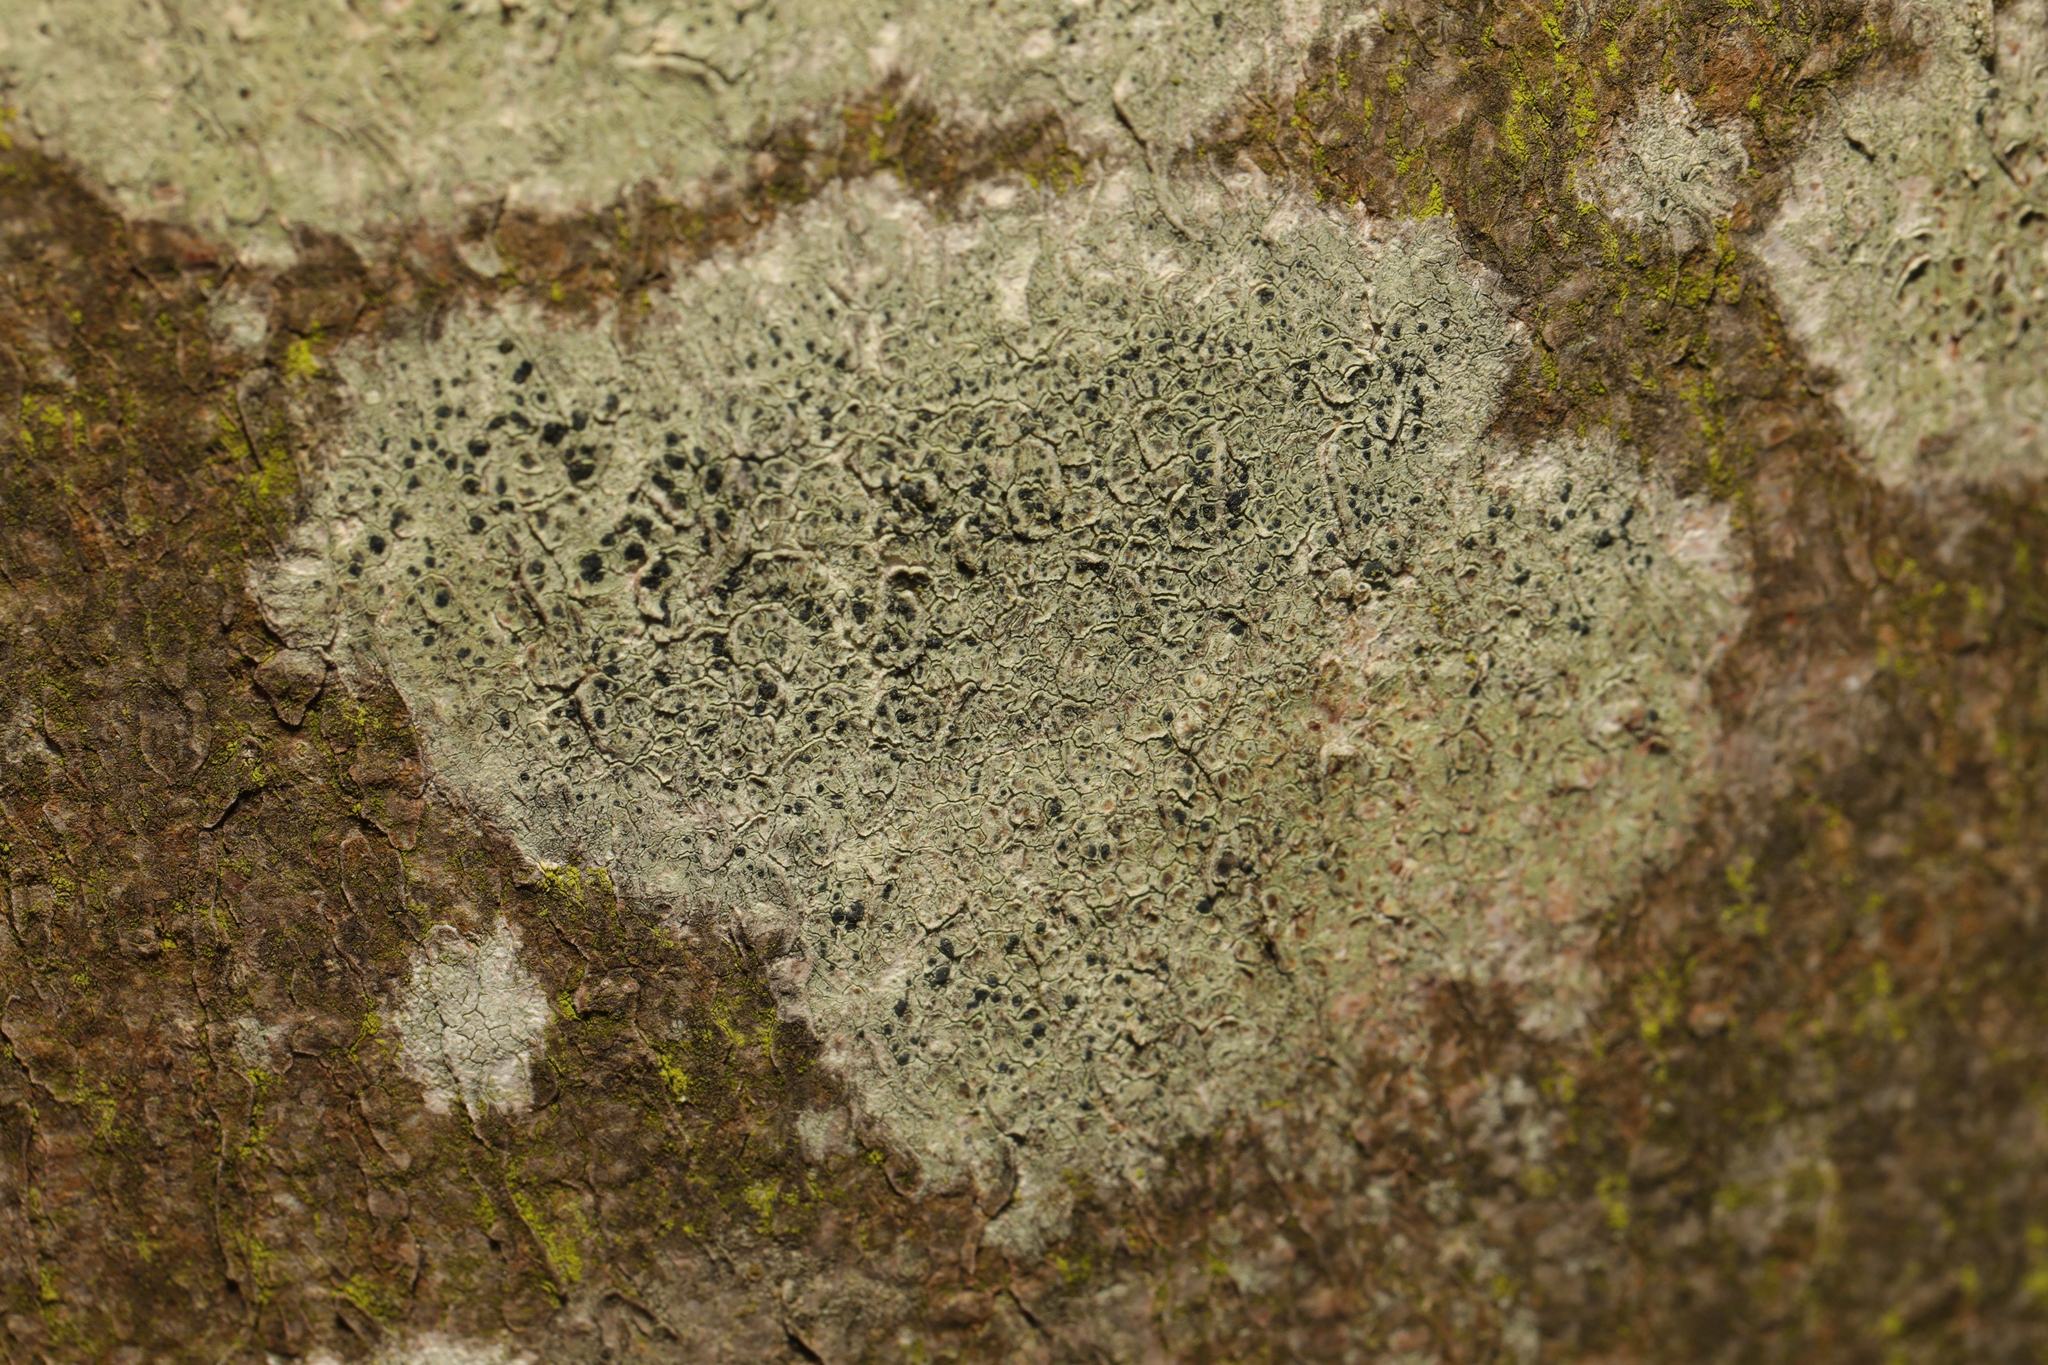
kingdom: Fungi
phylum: Ascomycota
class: Lecanoromycetes
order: Lecanorales
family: Lecanoraceae
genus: Lecidella
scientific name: Lecidella elaeochroma
